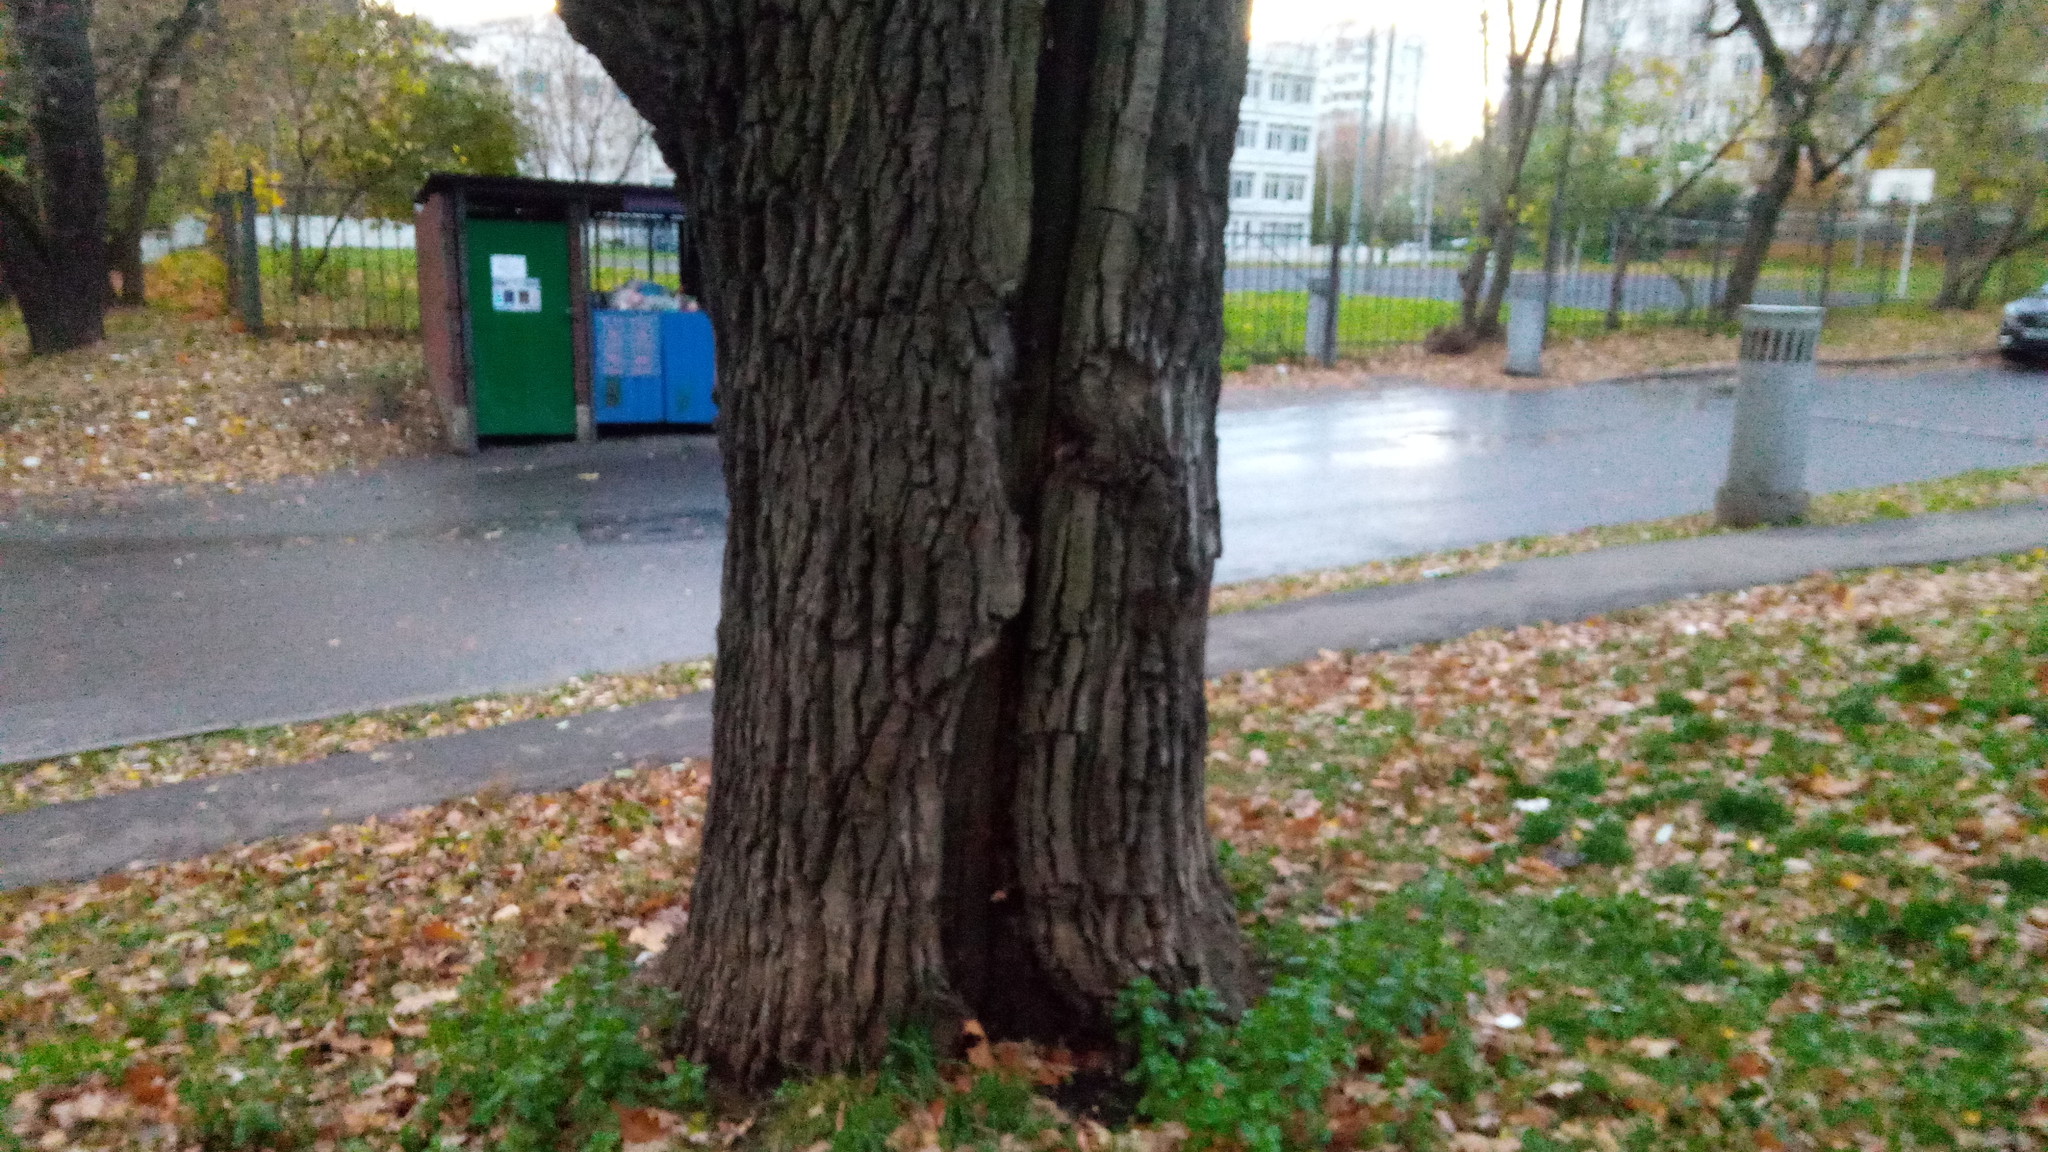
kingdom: Plantae
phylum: Tracheophyta
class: Magnoliopsida
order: Fagales
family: Fagaceae
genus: Quercus
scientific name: Quercus robur
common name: Pedunculate oak
